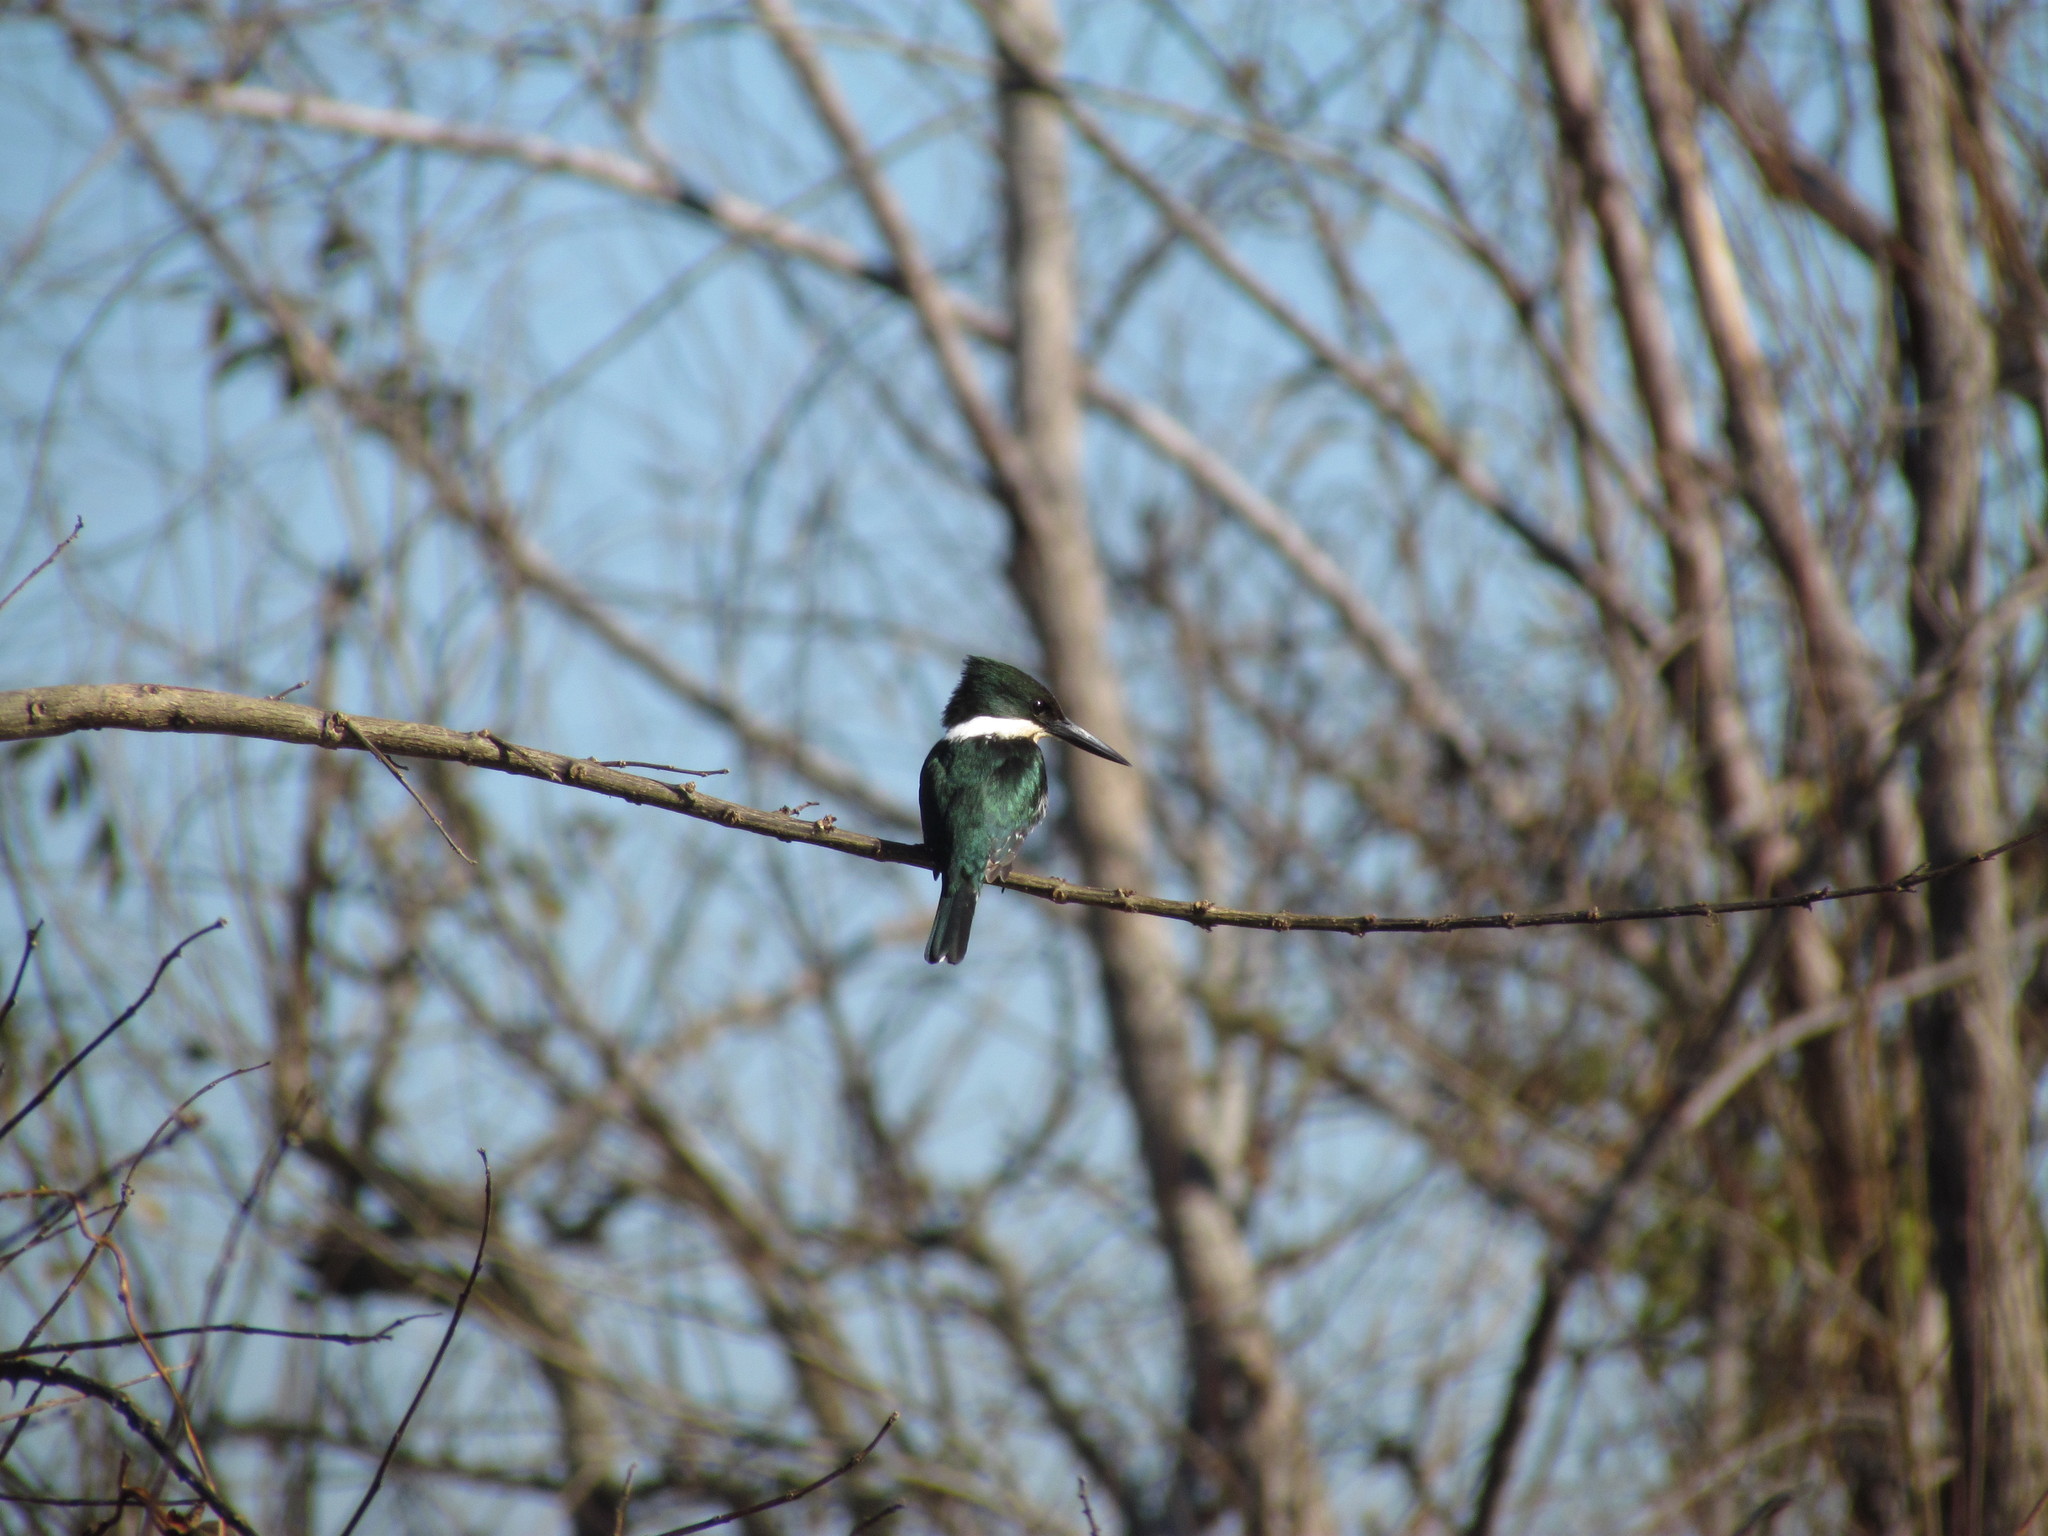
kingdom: Animalia
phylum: Chordata
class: Aves
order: Coraciiformes
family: Alcedinidae
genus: Chloroceryle
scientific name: Chloroceryle americana
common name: Green kingfisher
